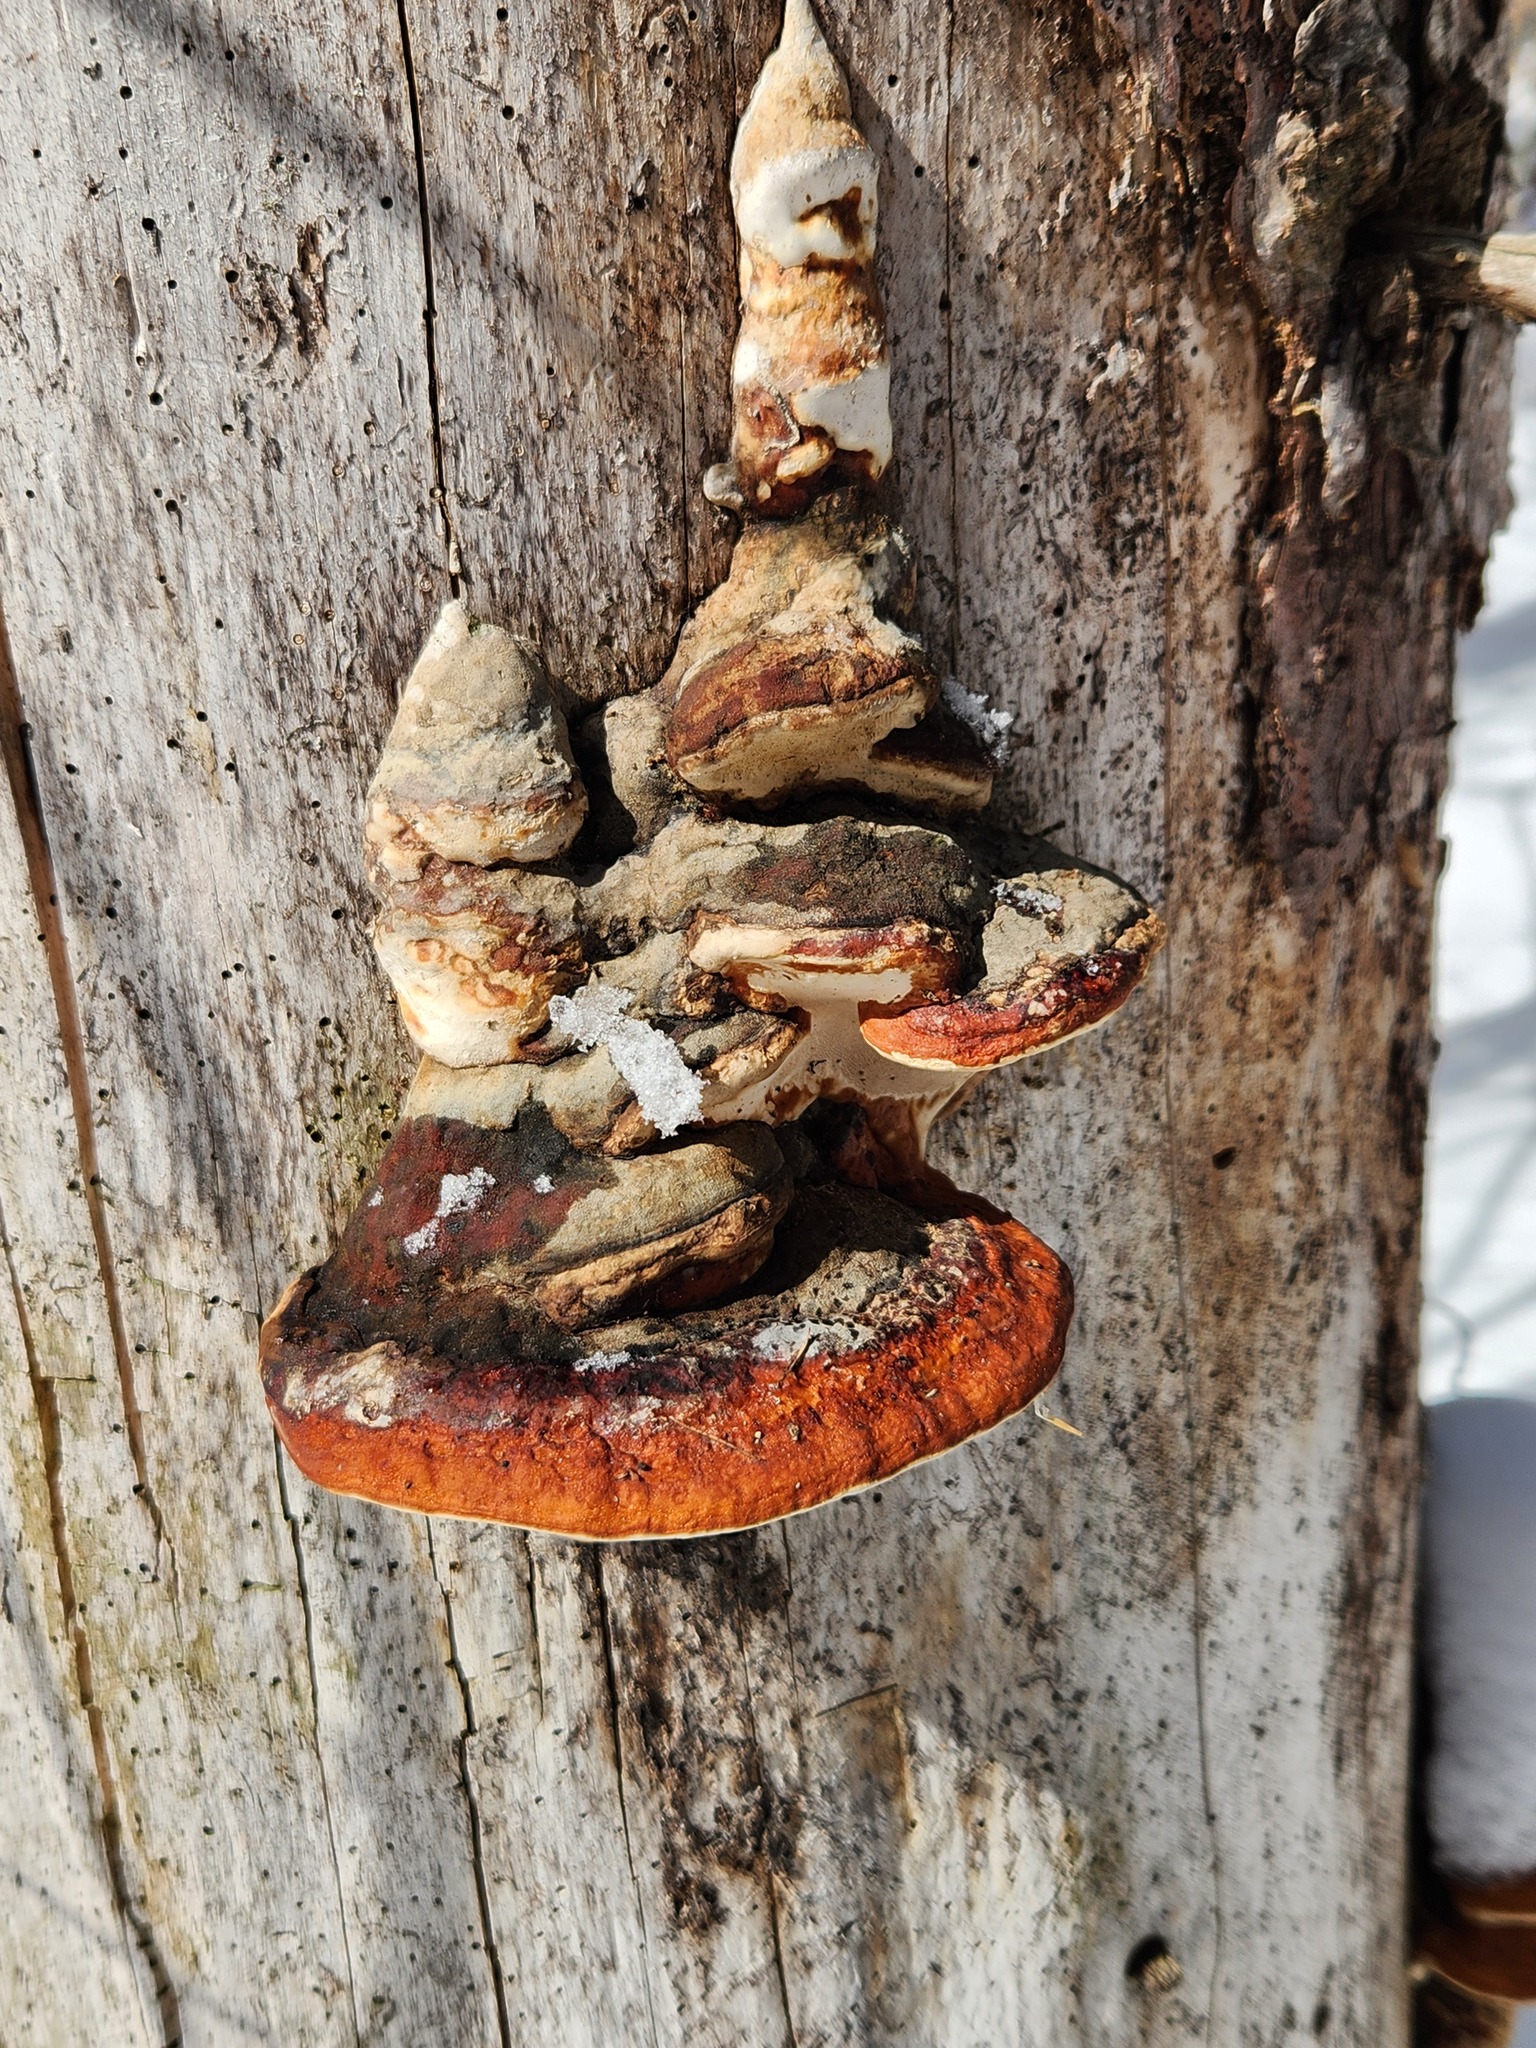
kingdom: Fungi
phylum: Basidiomycota
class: Agaricomycetes
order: Polyporales
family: Fomitopsidaceae
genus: Fomitopsis
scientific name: Fomitopsis mounceae
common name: Northern red belt
